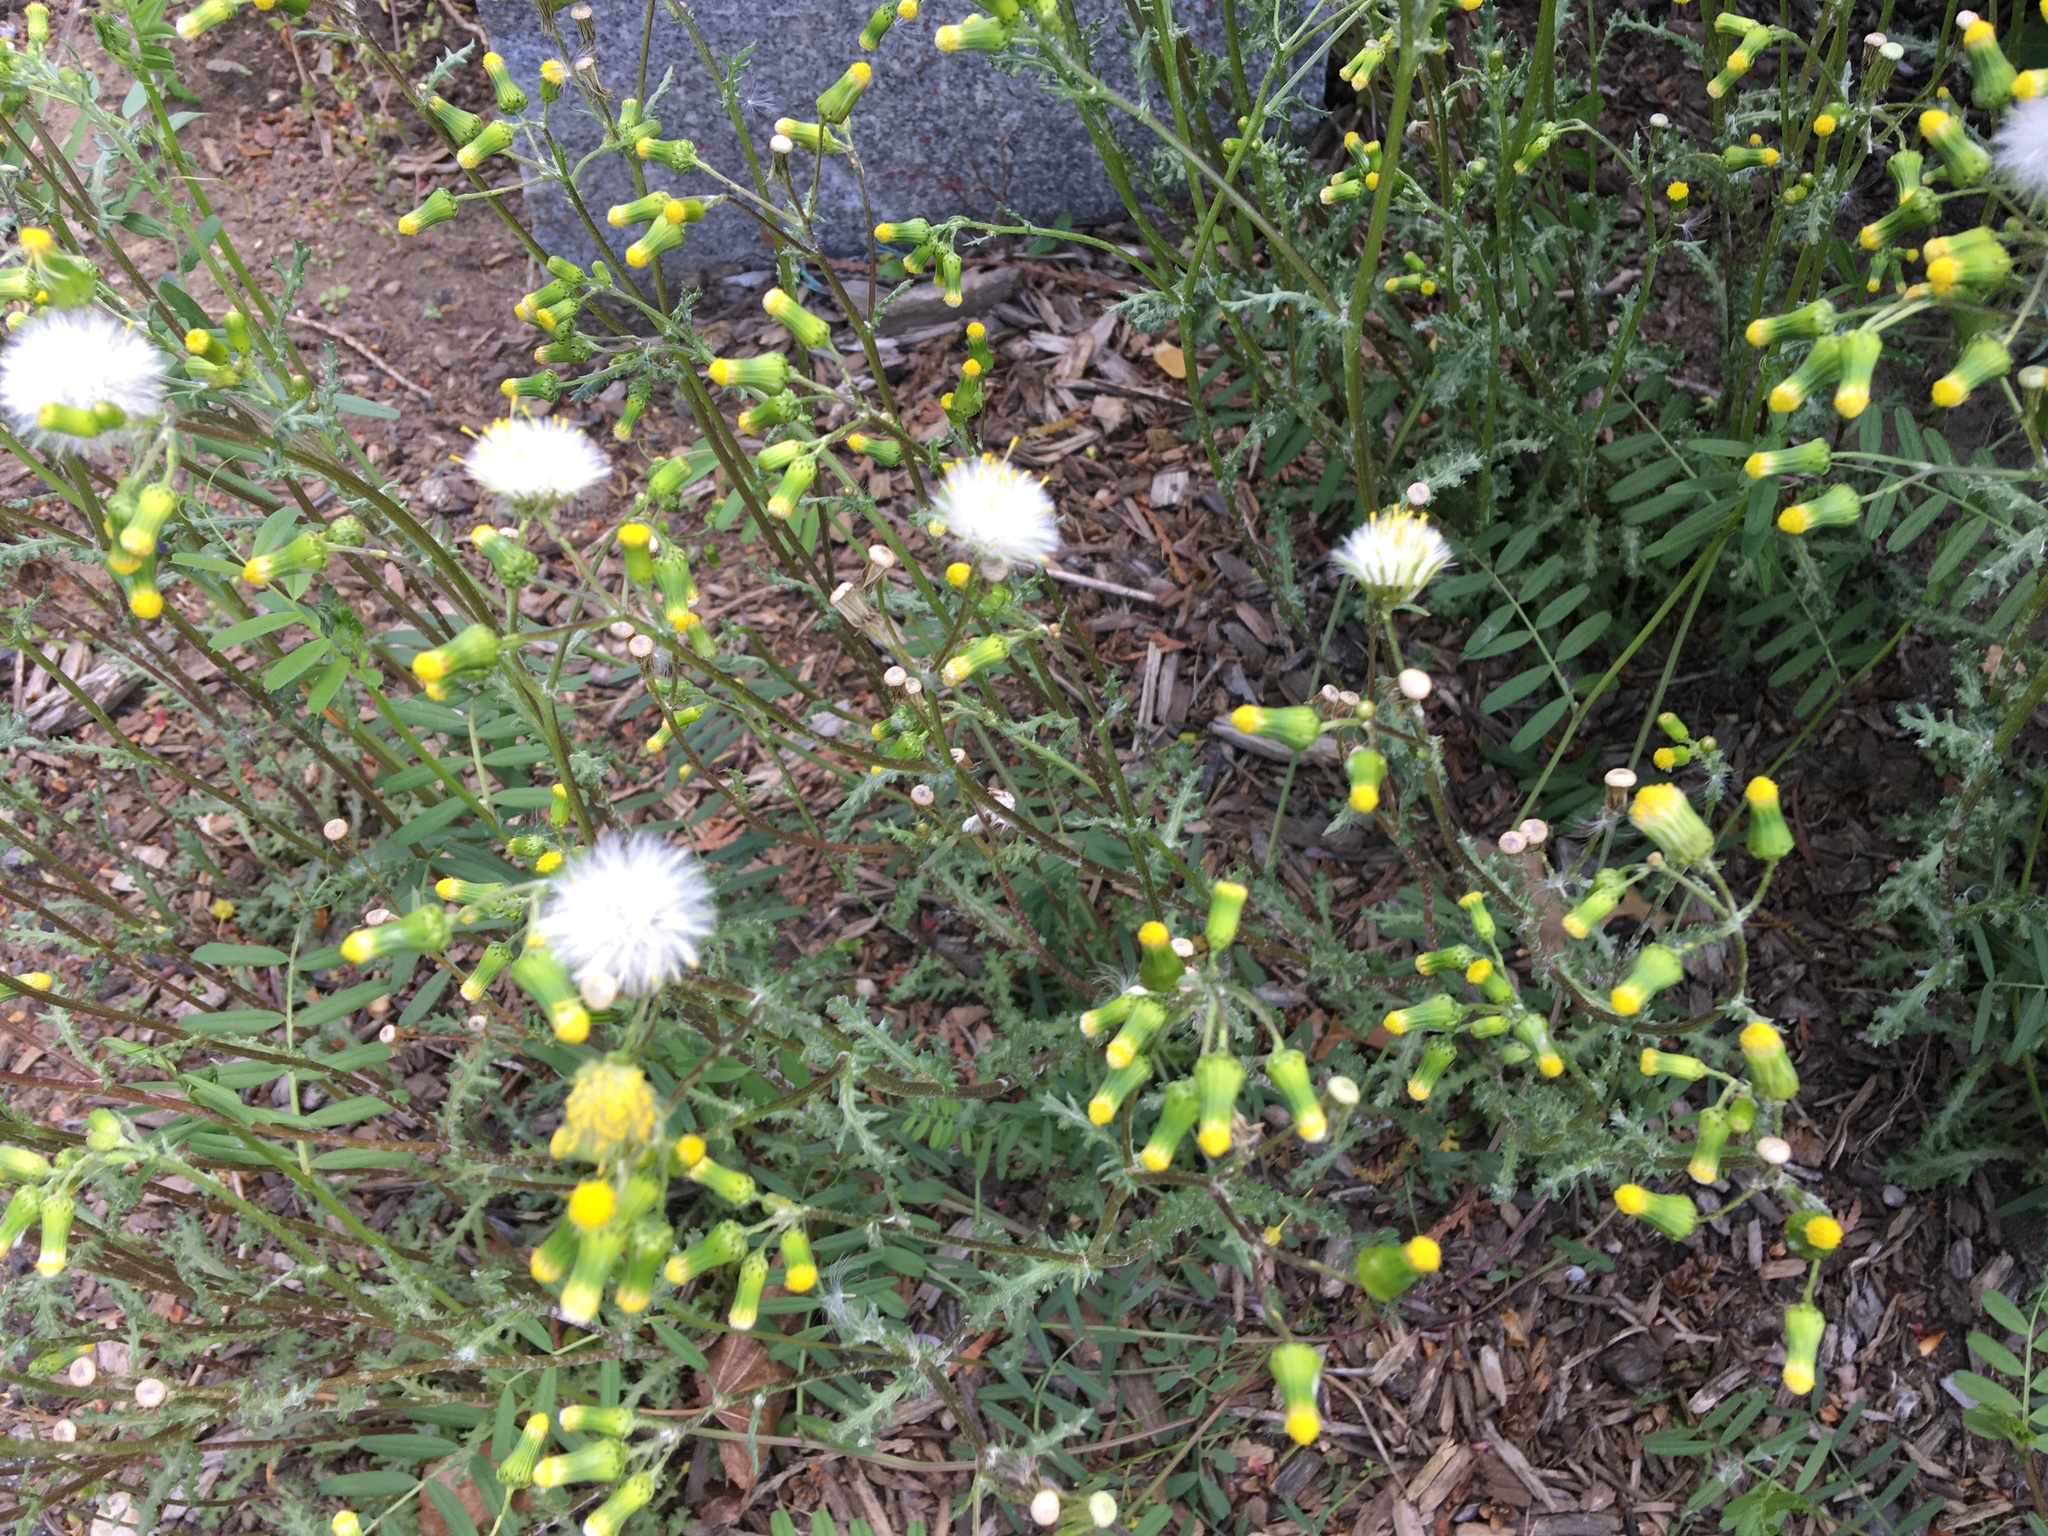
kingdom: Plantae
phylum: Tracheophyta
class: Magnoliopsida
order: Asterales
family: Asteraceae
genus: Senecio
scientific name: Senecio vulgaris
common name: Old-man-in-the-spring
